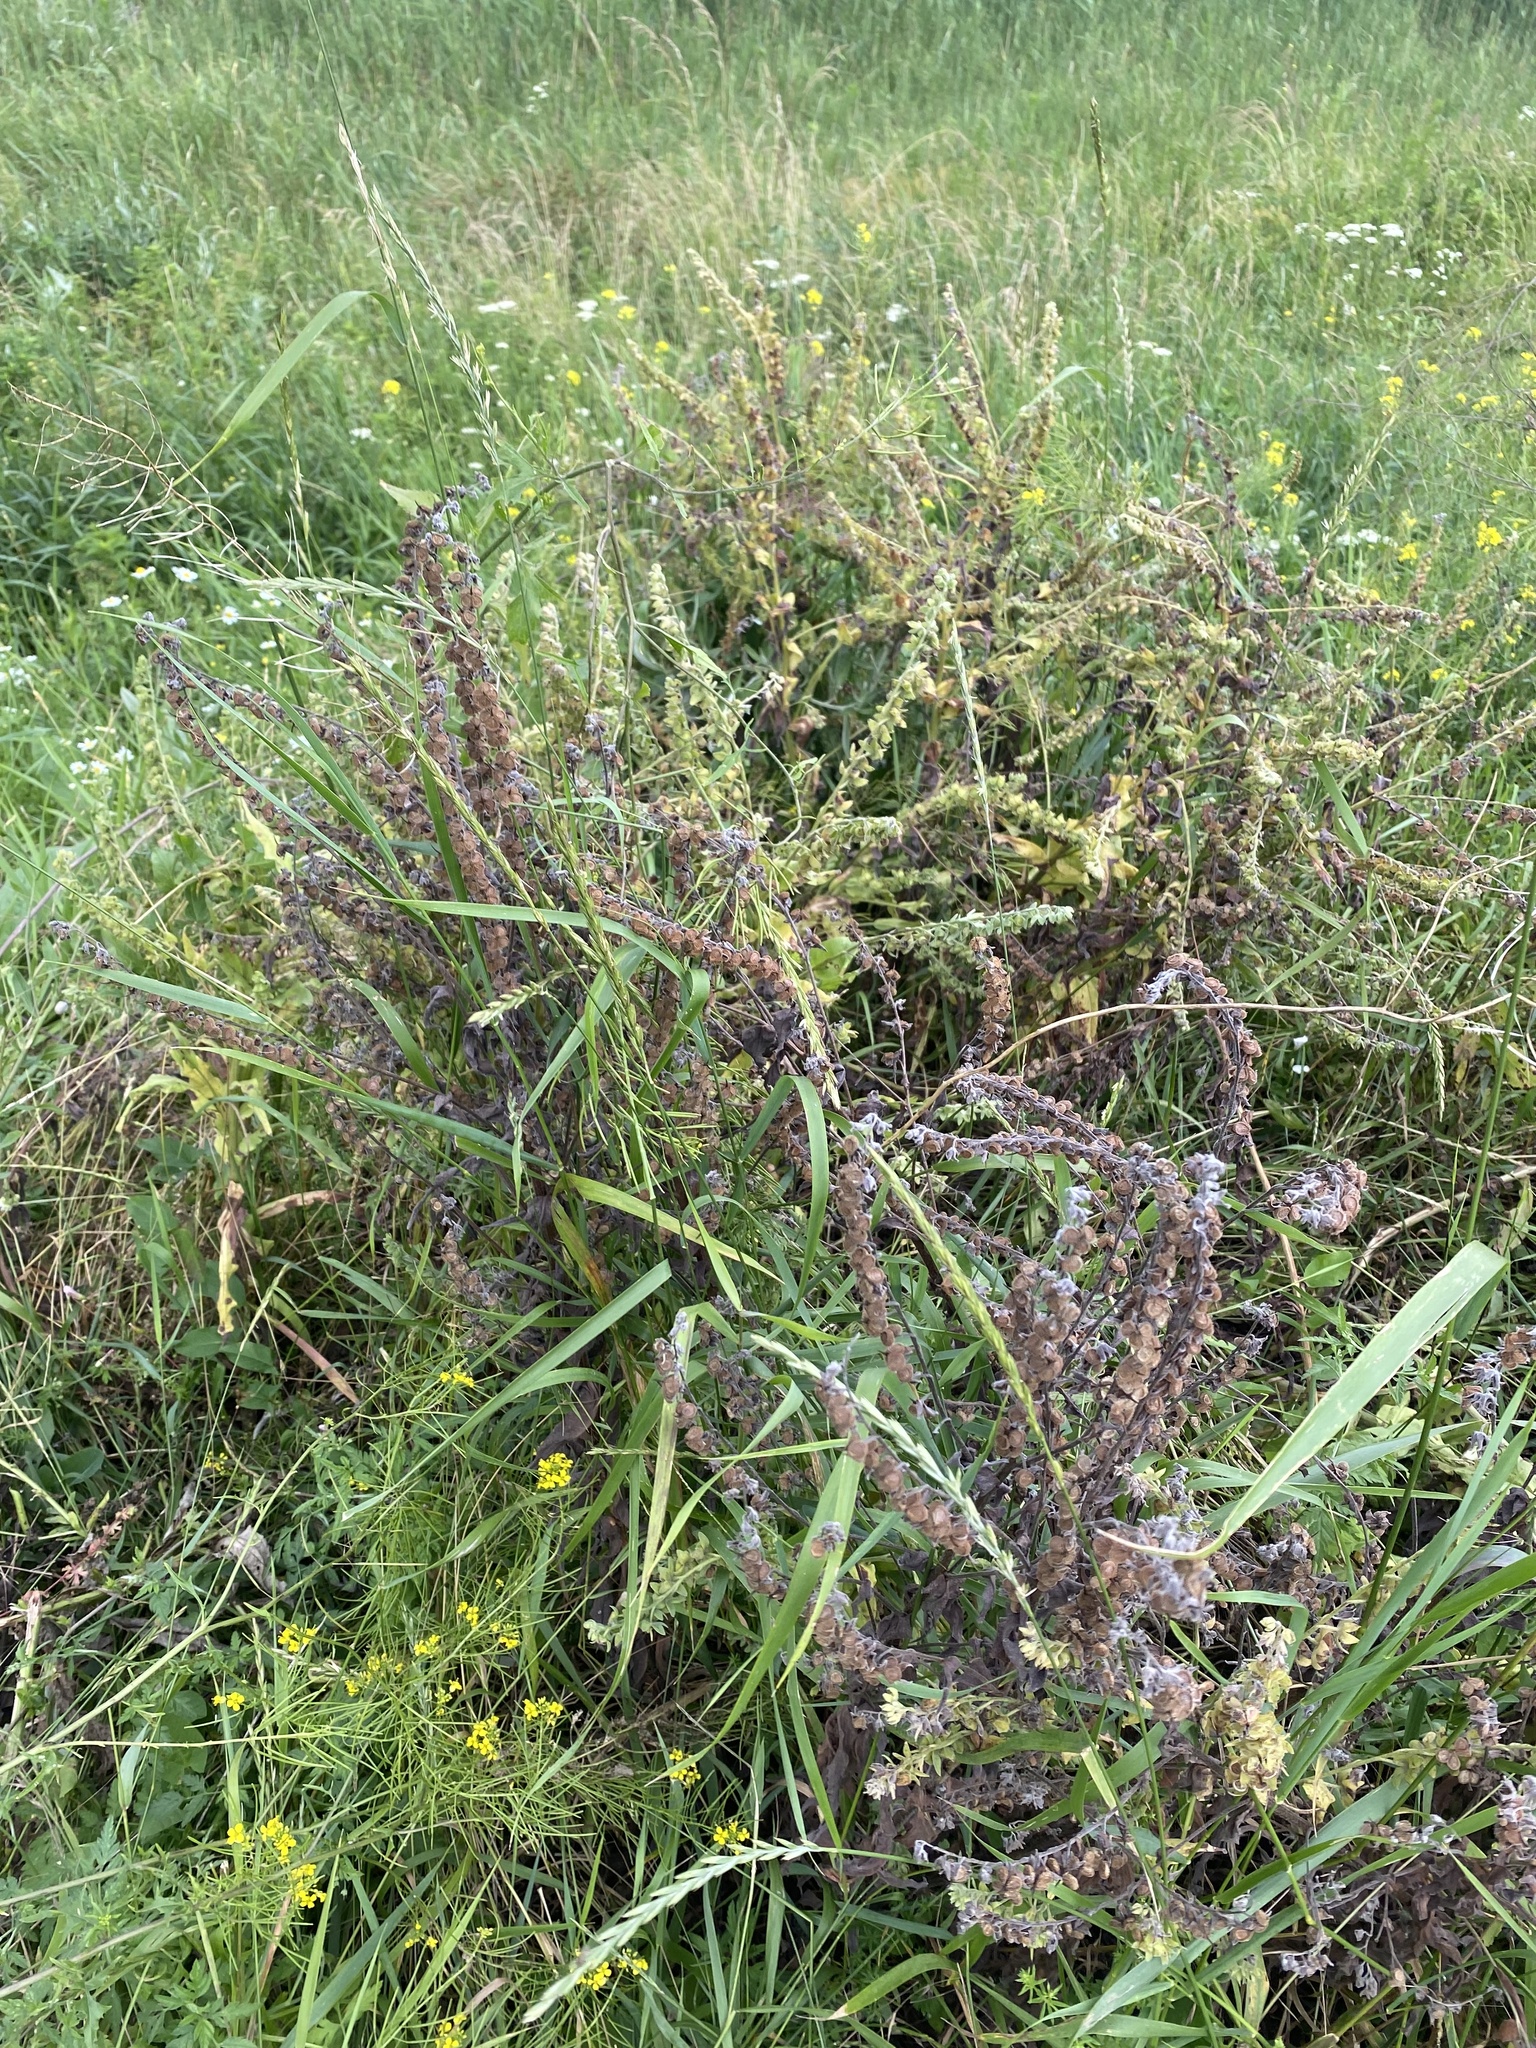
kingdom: Plantae
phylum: Tracheophyta
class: Magnoliopsida
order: Boraginales
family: Boraginaceae
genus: Cynoglossum
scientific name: Cynoglossum officinale
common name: Hound's-tongue
